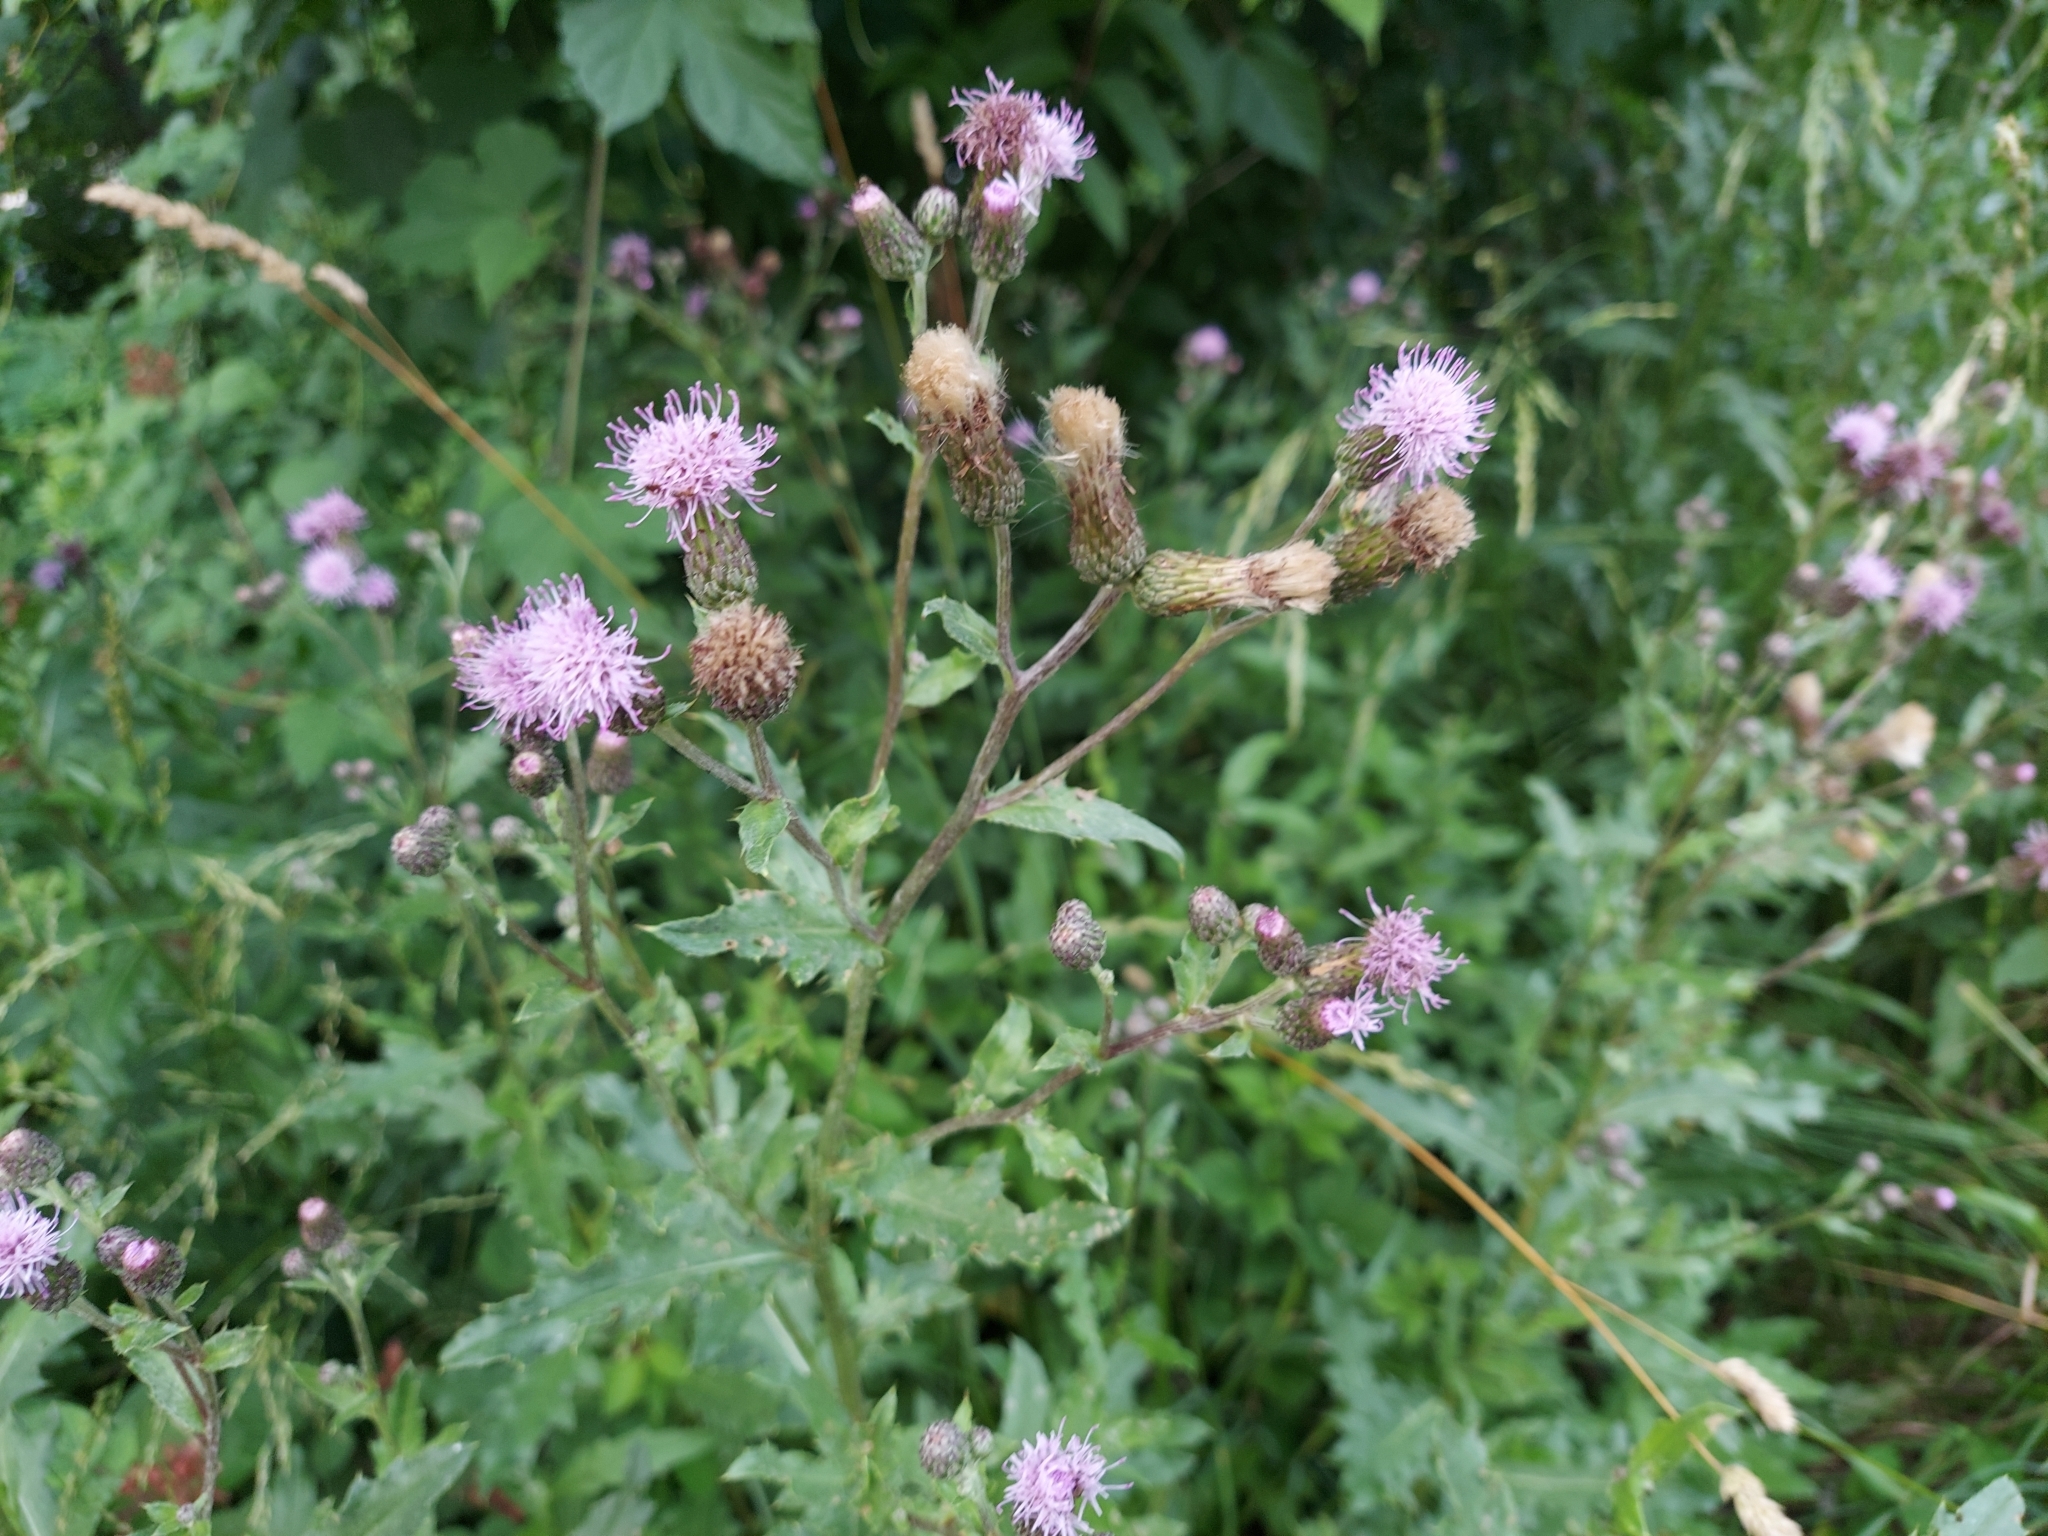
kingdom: Plantae
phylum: Tracheophyta
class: Magnoliopsida
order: Asterales
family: Asteraceae
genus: Cirsium
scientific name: Cirsium arvense
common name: Creeping thistle
